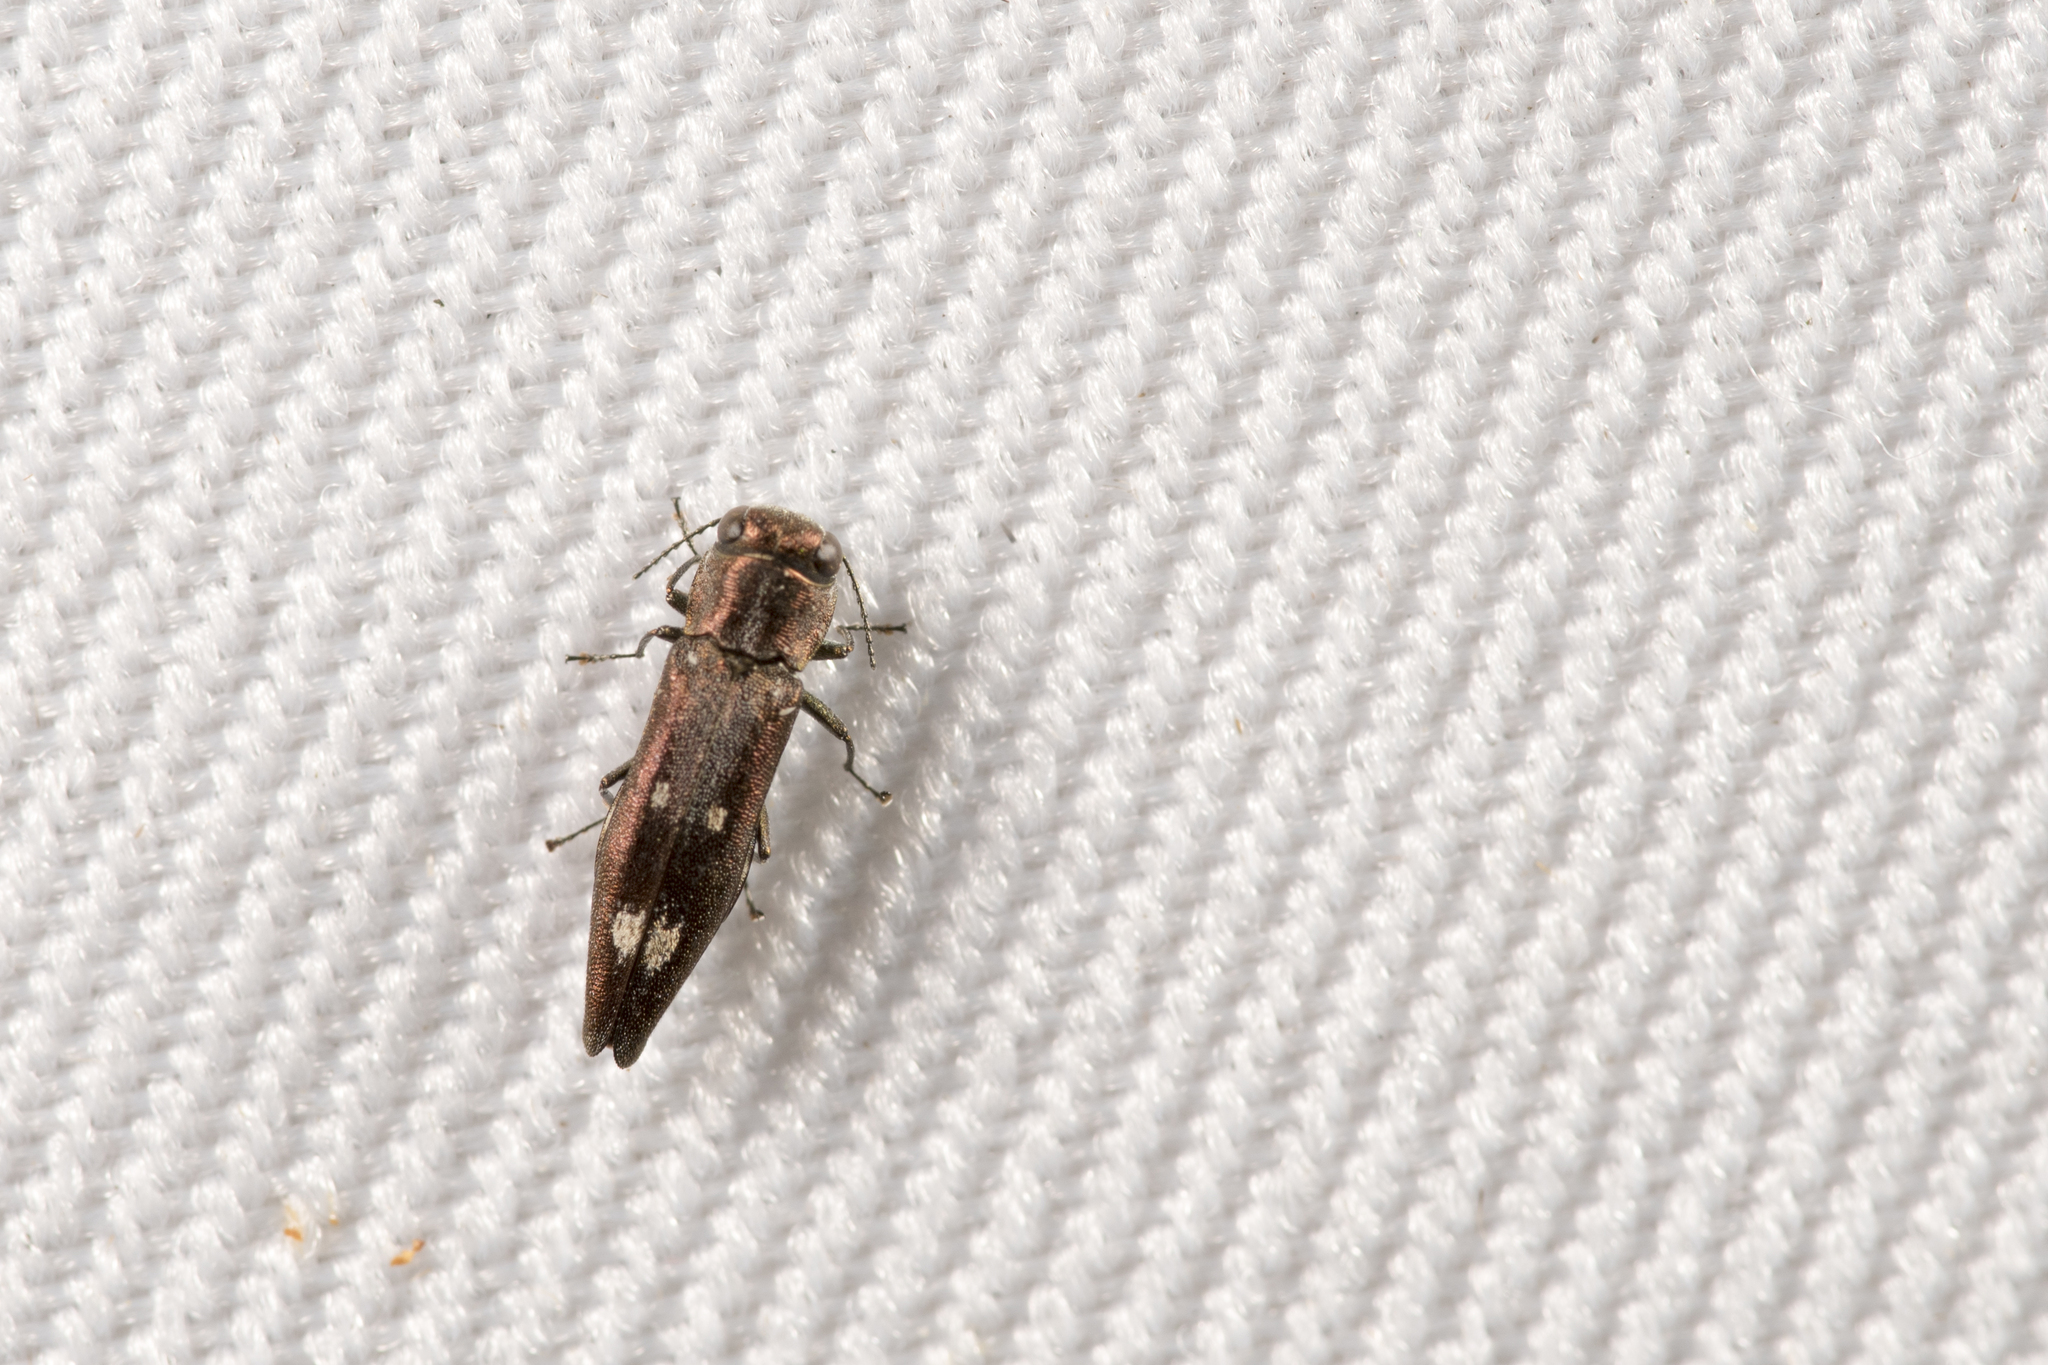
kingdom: Animalia
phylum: Arthropoda
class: Insecta
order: Coleoptera
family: Buprestidae
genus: Agrilus
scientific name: Agrilus oishii
